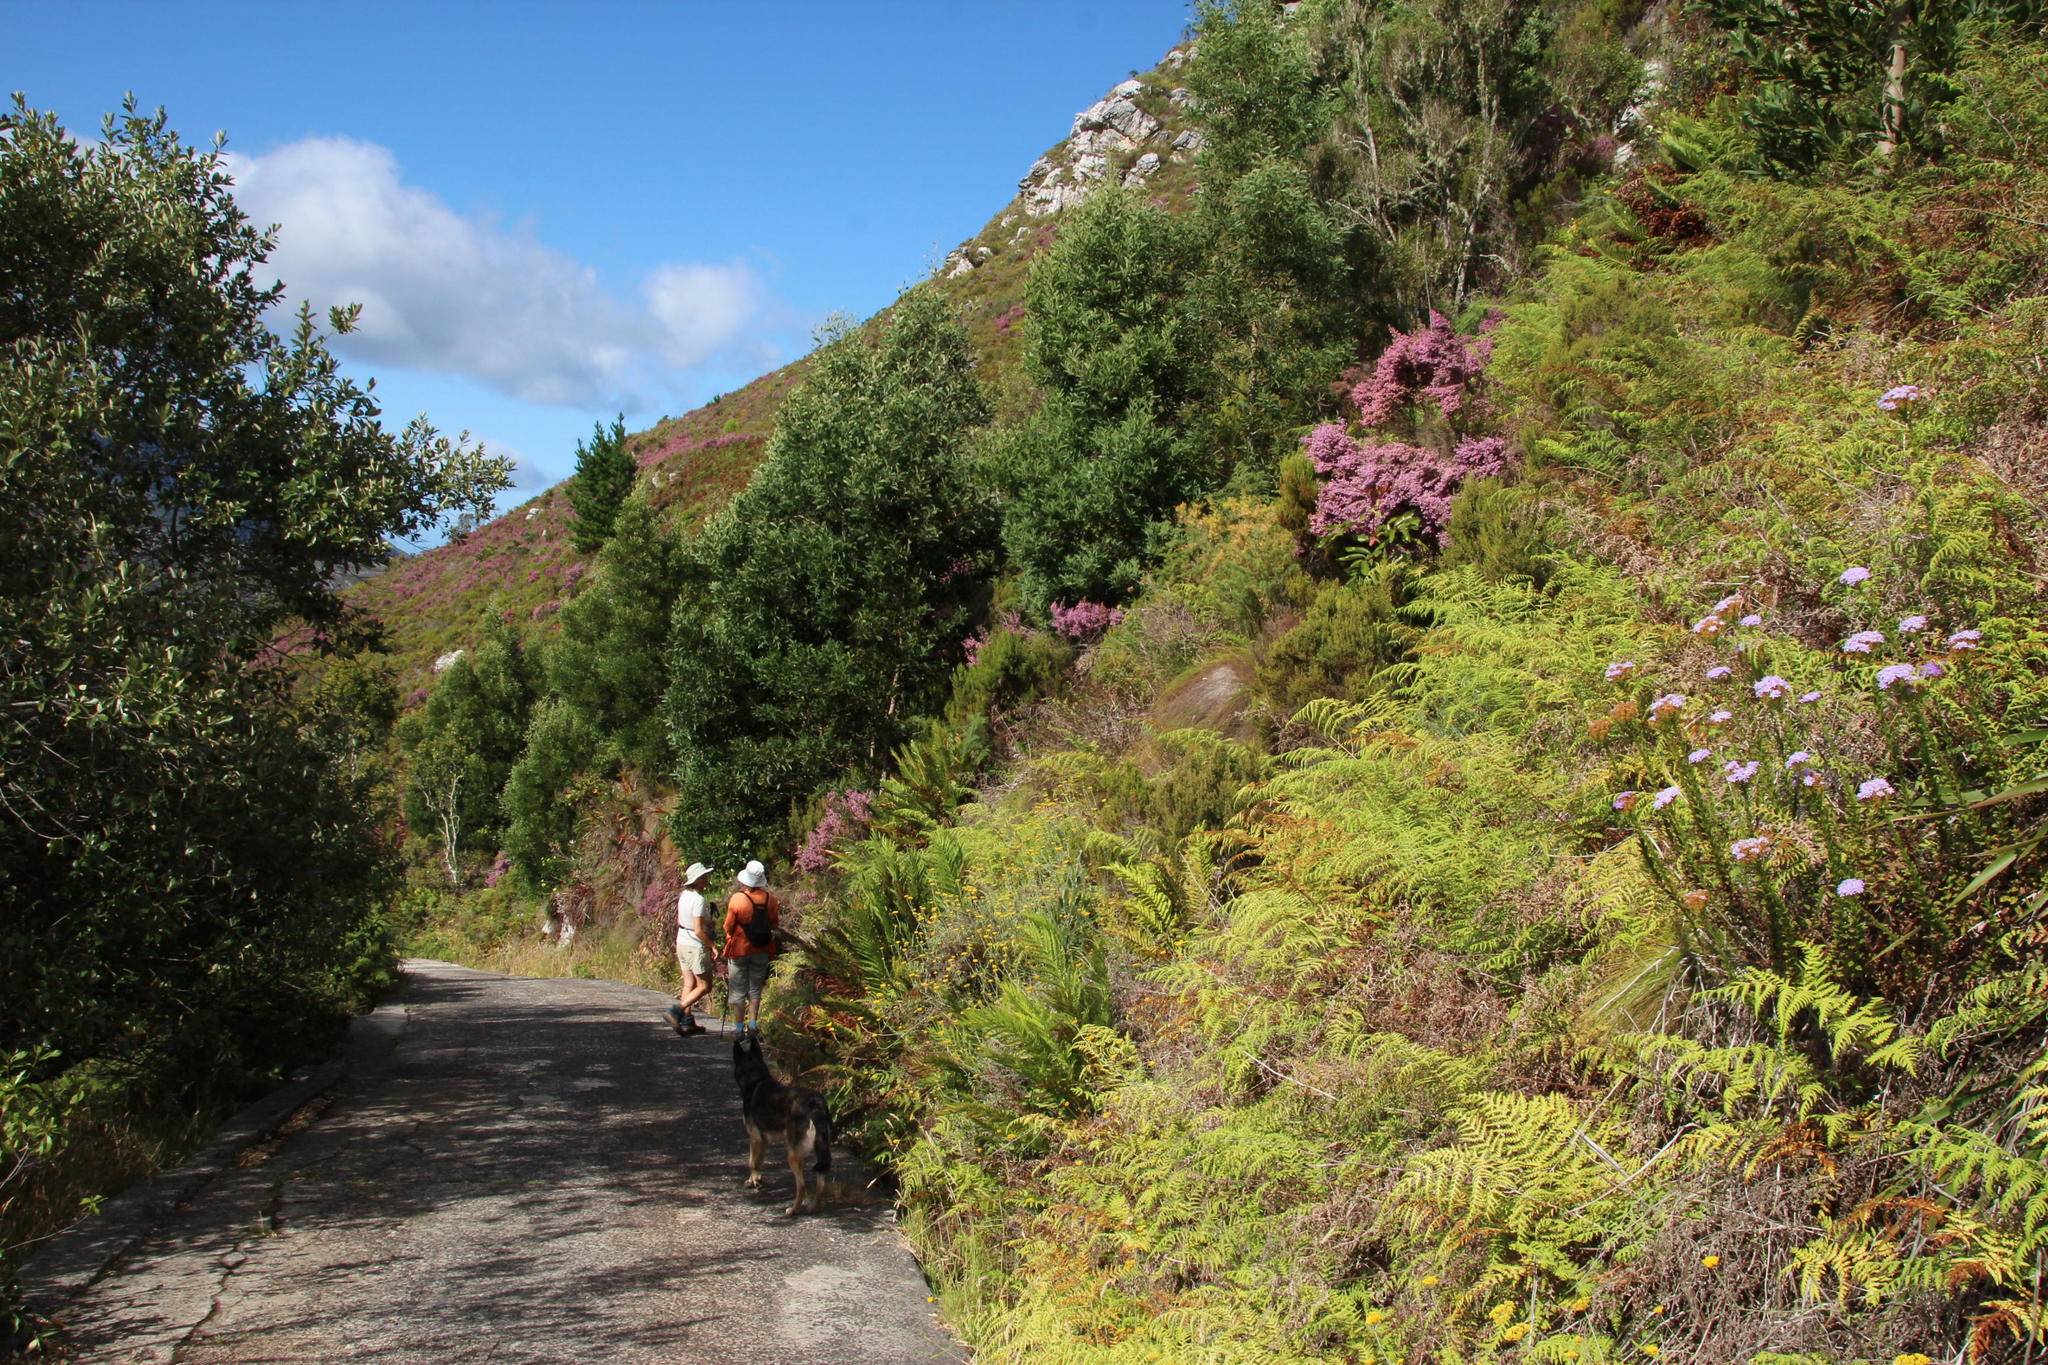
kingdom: Plantae
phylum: Tracheophyta
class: Magnoliopsida
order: Ericales
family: Ericaceae
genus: Erica
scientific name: Erica hirtiflora
